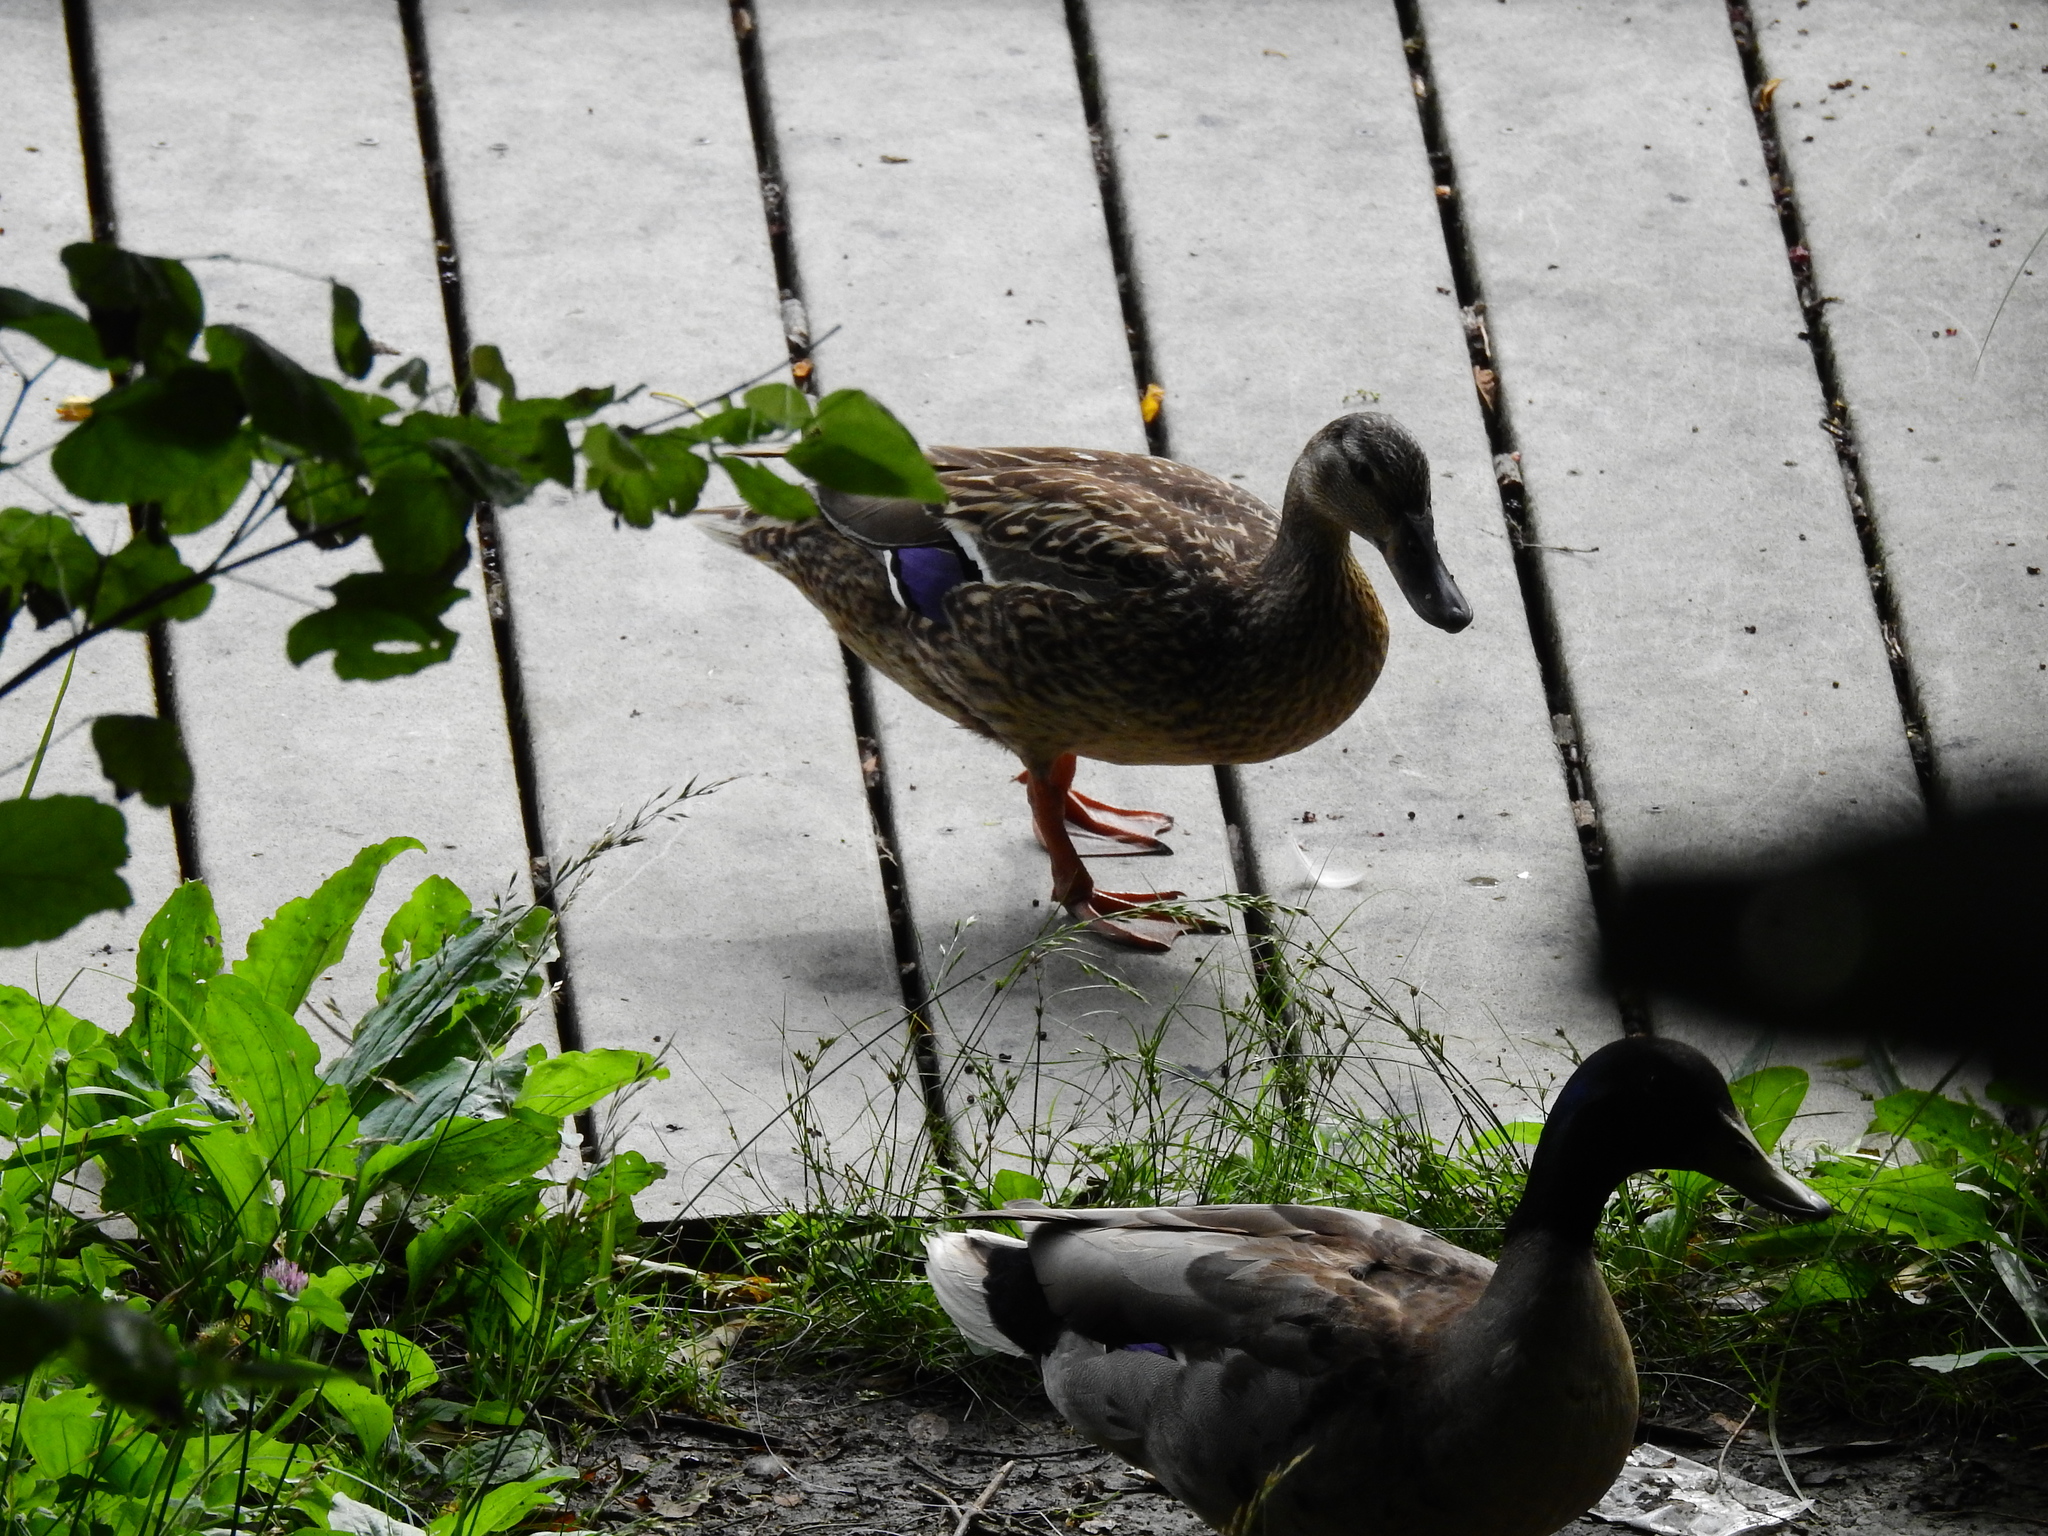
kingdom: Animalia
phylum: Chordata
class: Aves
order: Anseriformes
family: Anatidae
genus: Anas
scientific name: Anas platyrhynchos
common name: Mallard
